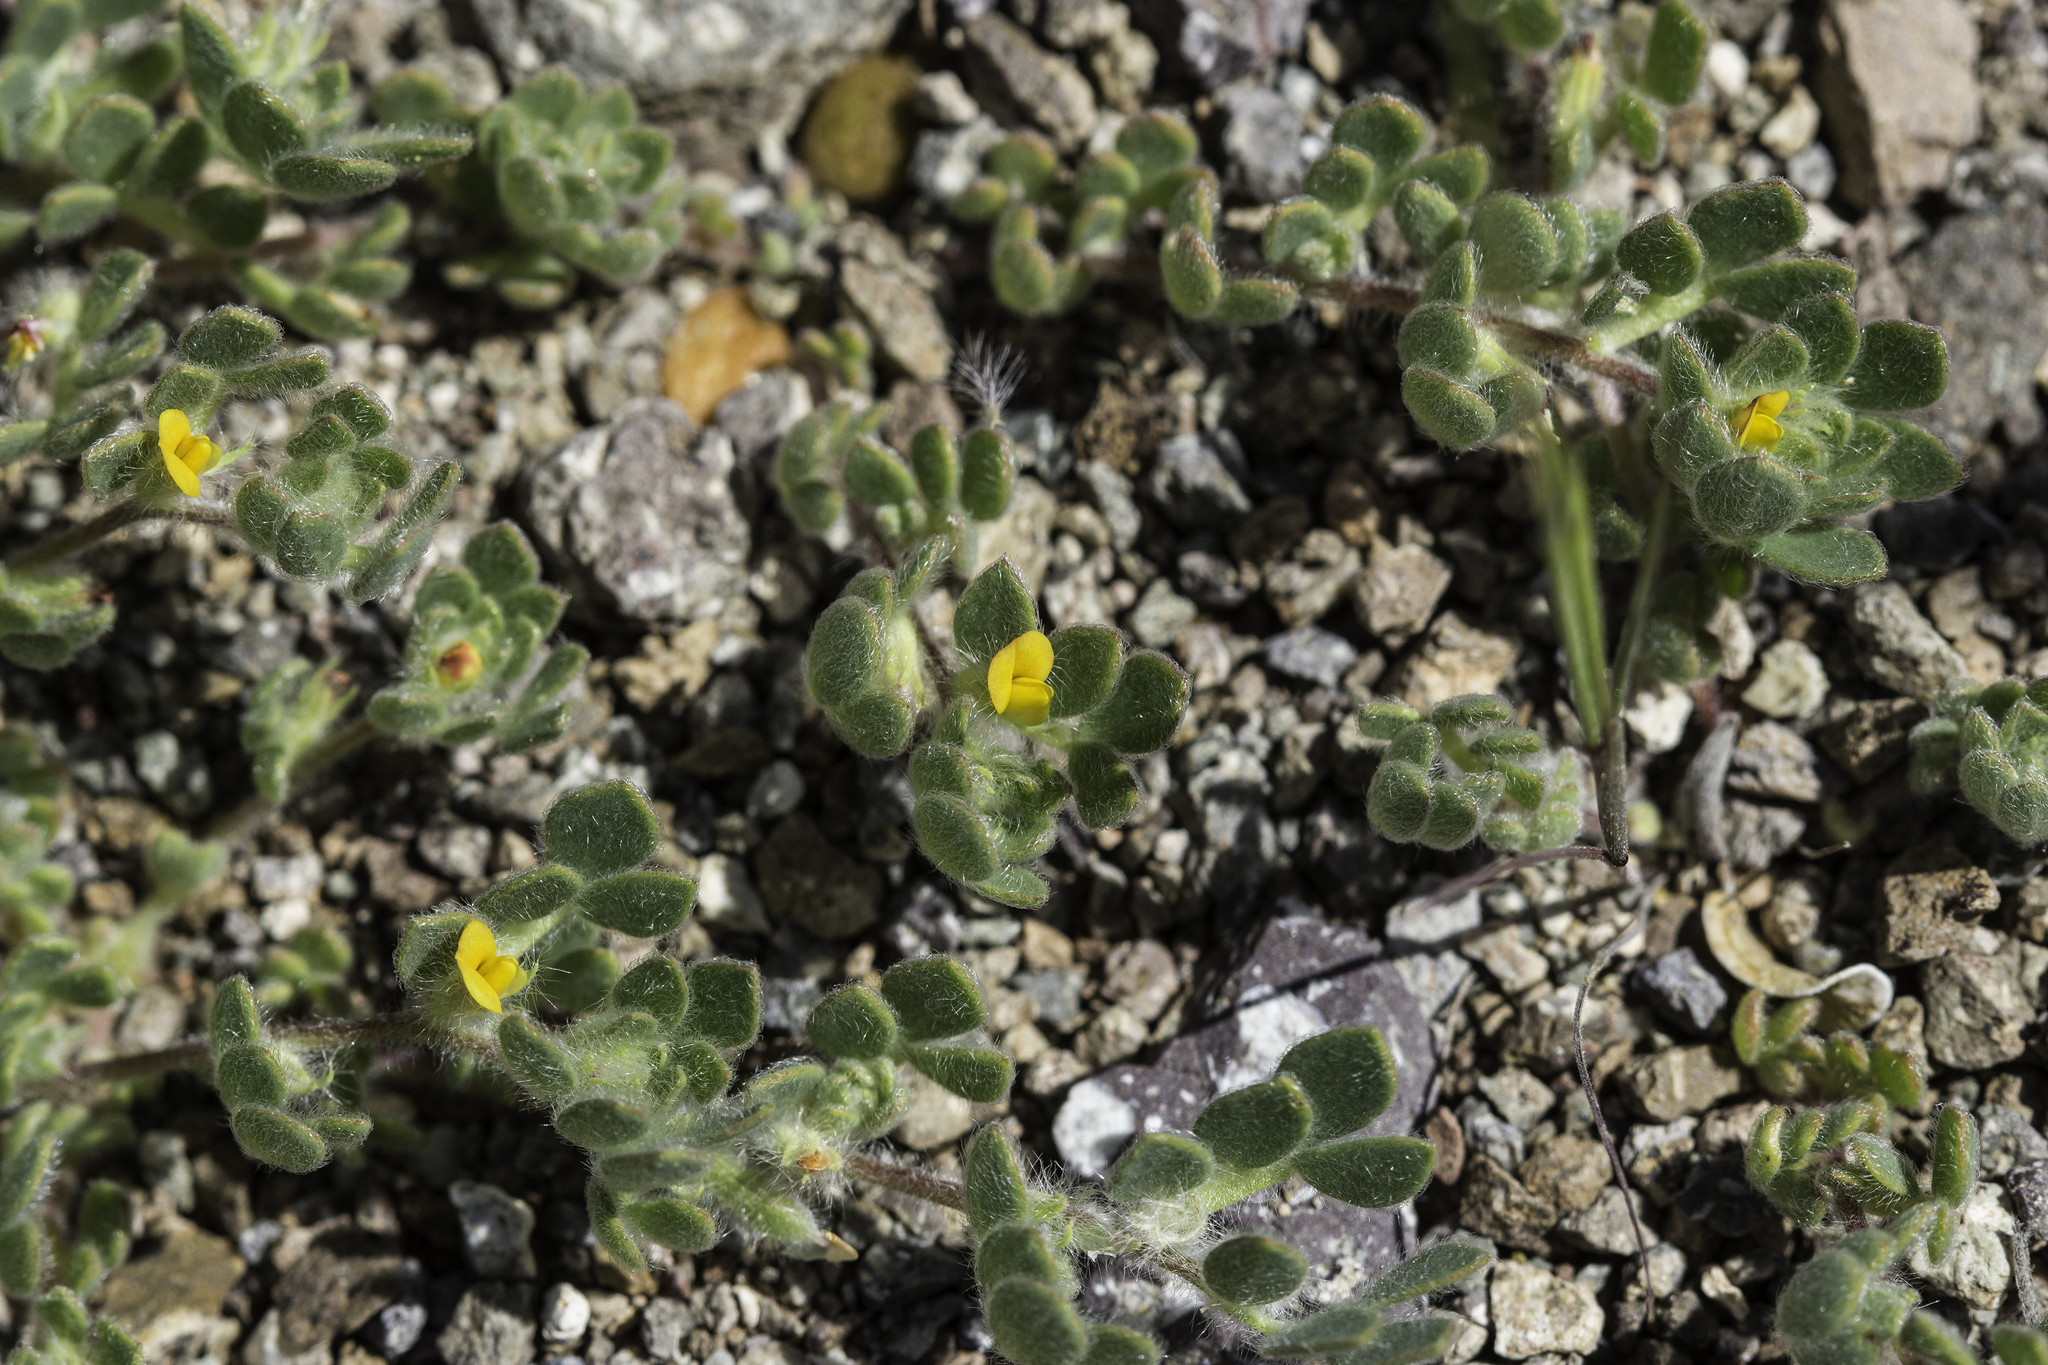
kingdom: Plantae
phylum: Tracheophyta
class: Magnoliopsida
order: Fabales
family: Fabaceae
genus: Acmispon
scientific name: Acmispon brachycarpus
